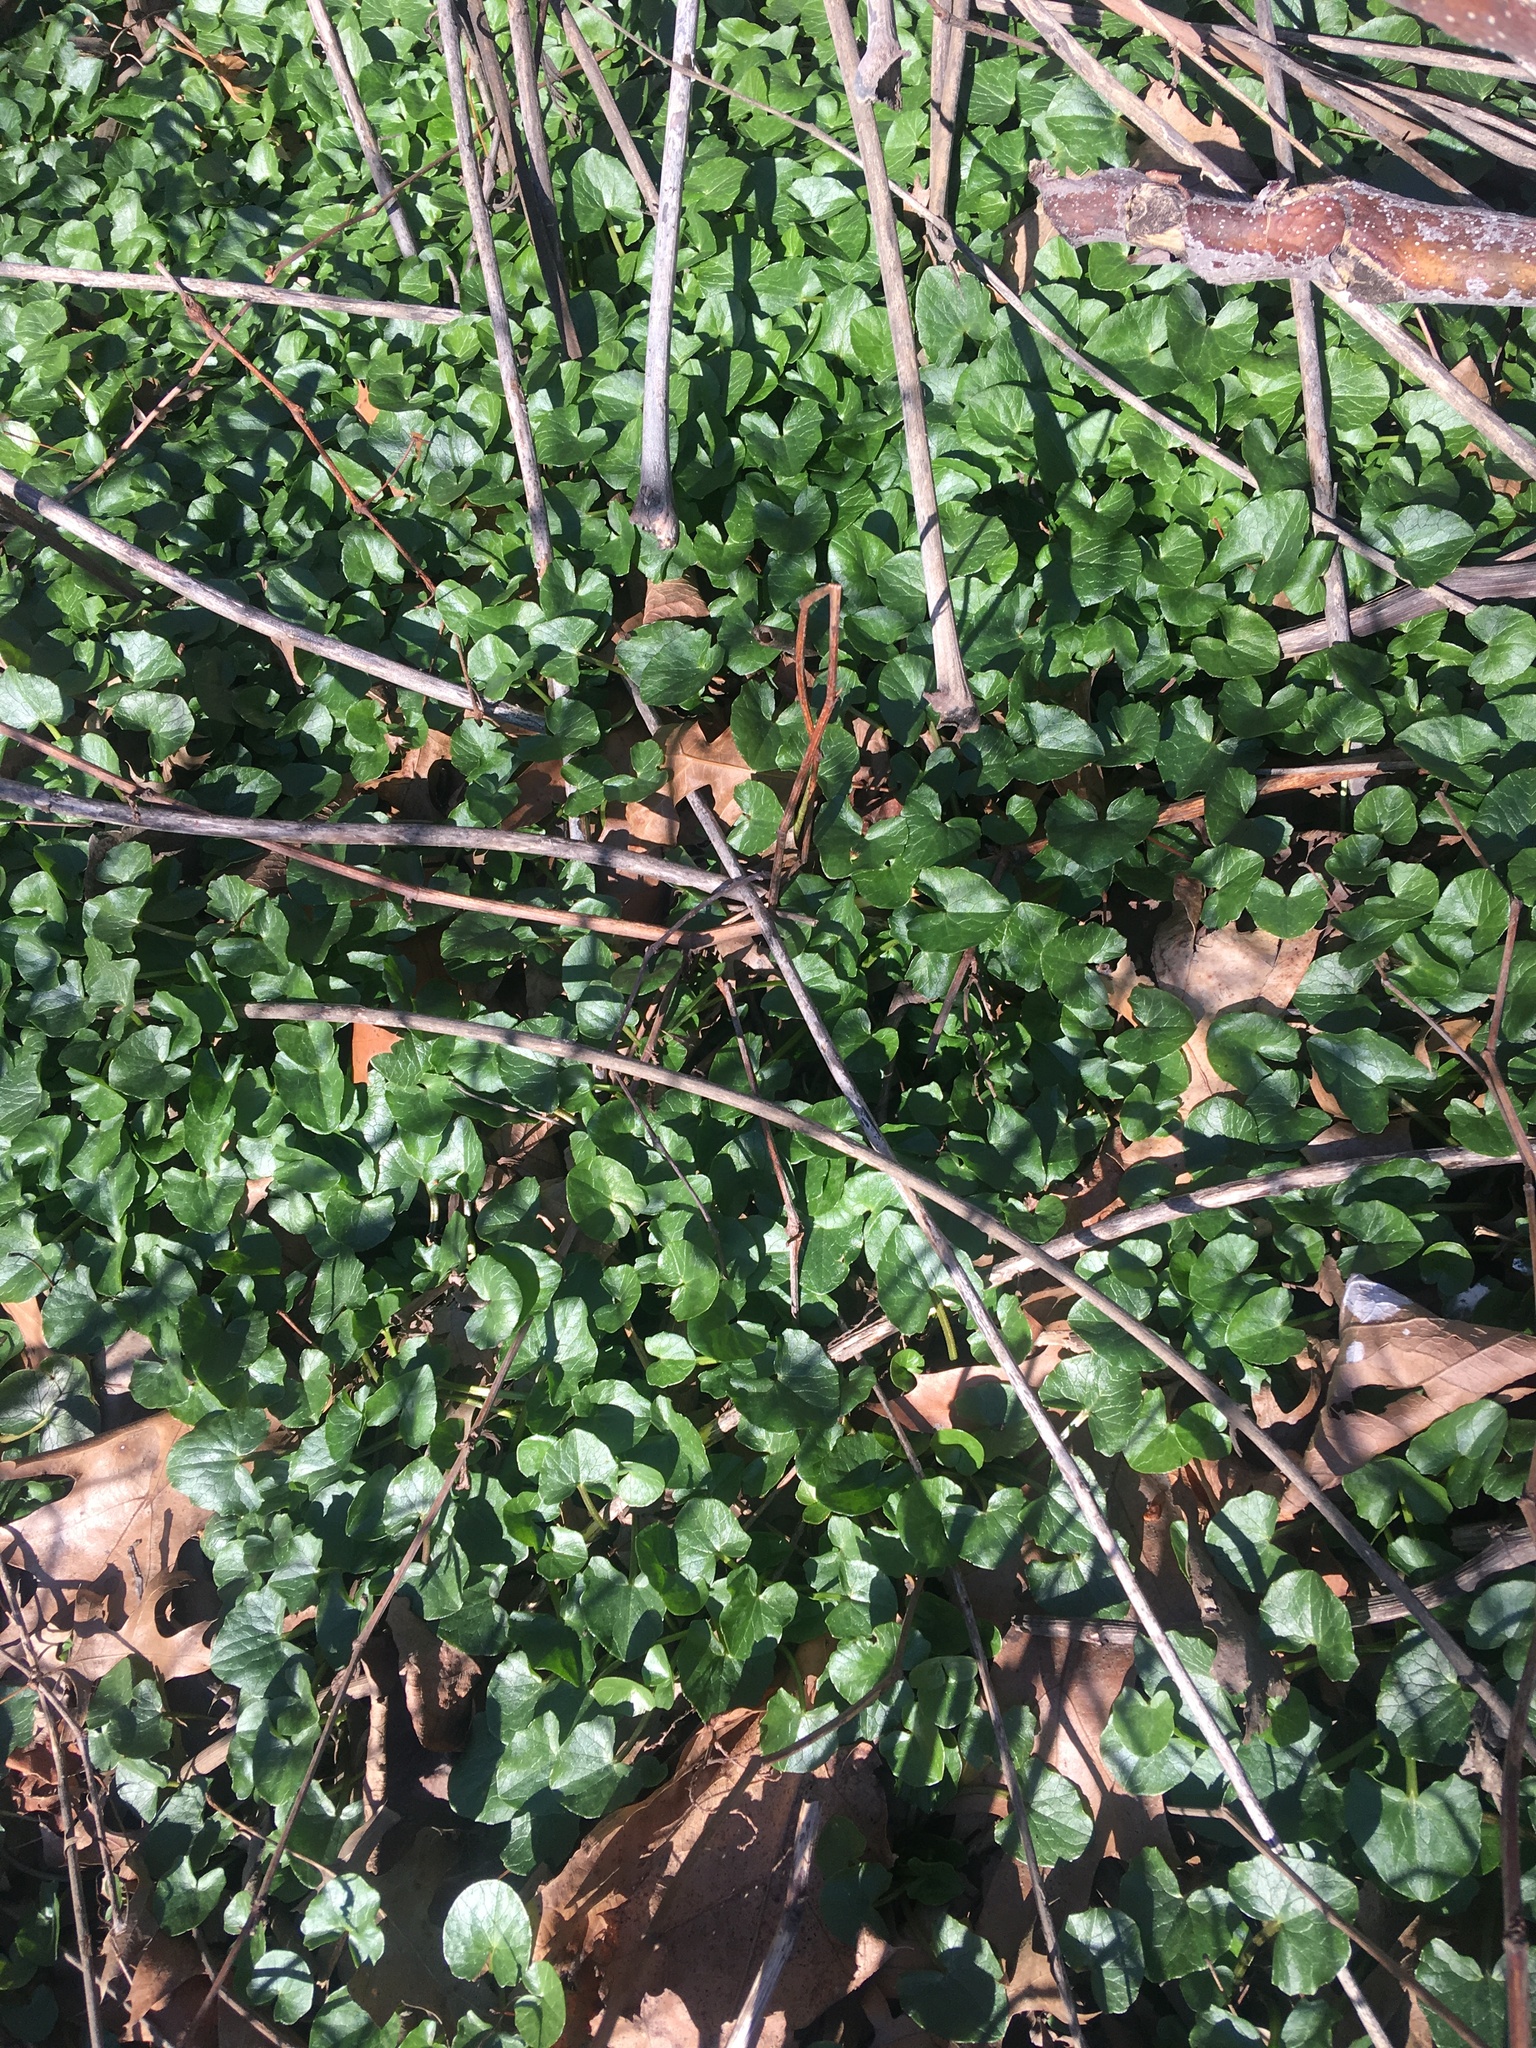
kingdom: Plantae
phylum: Tracheophyta
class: Magnoliopsida
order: Ranunculales
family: Ranunculaceae
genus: Ficaria
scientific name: Ficaria verna
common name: Lesser celandine
